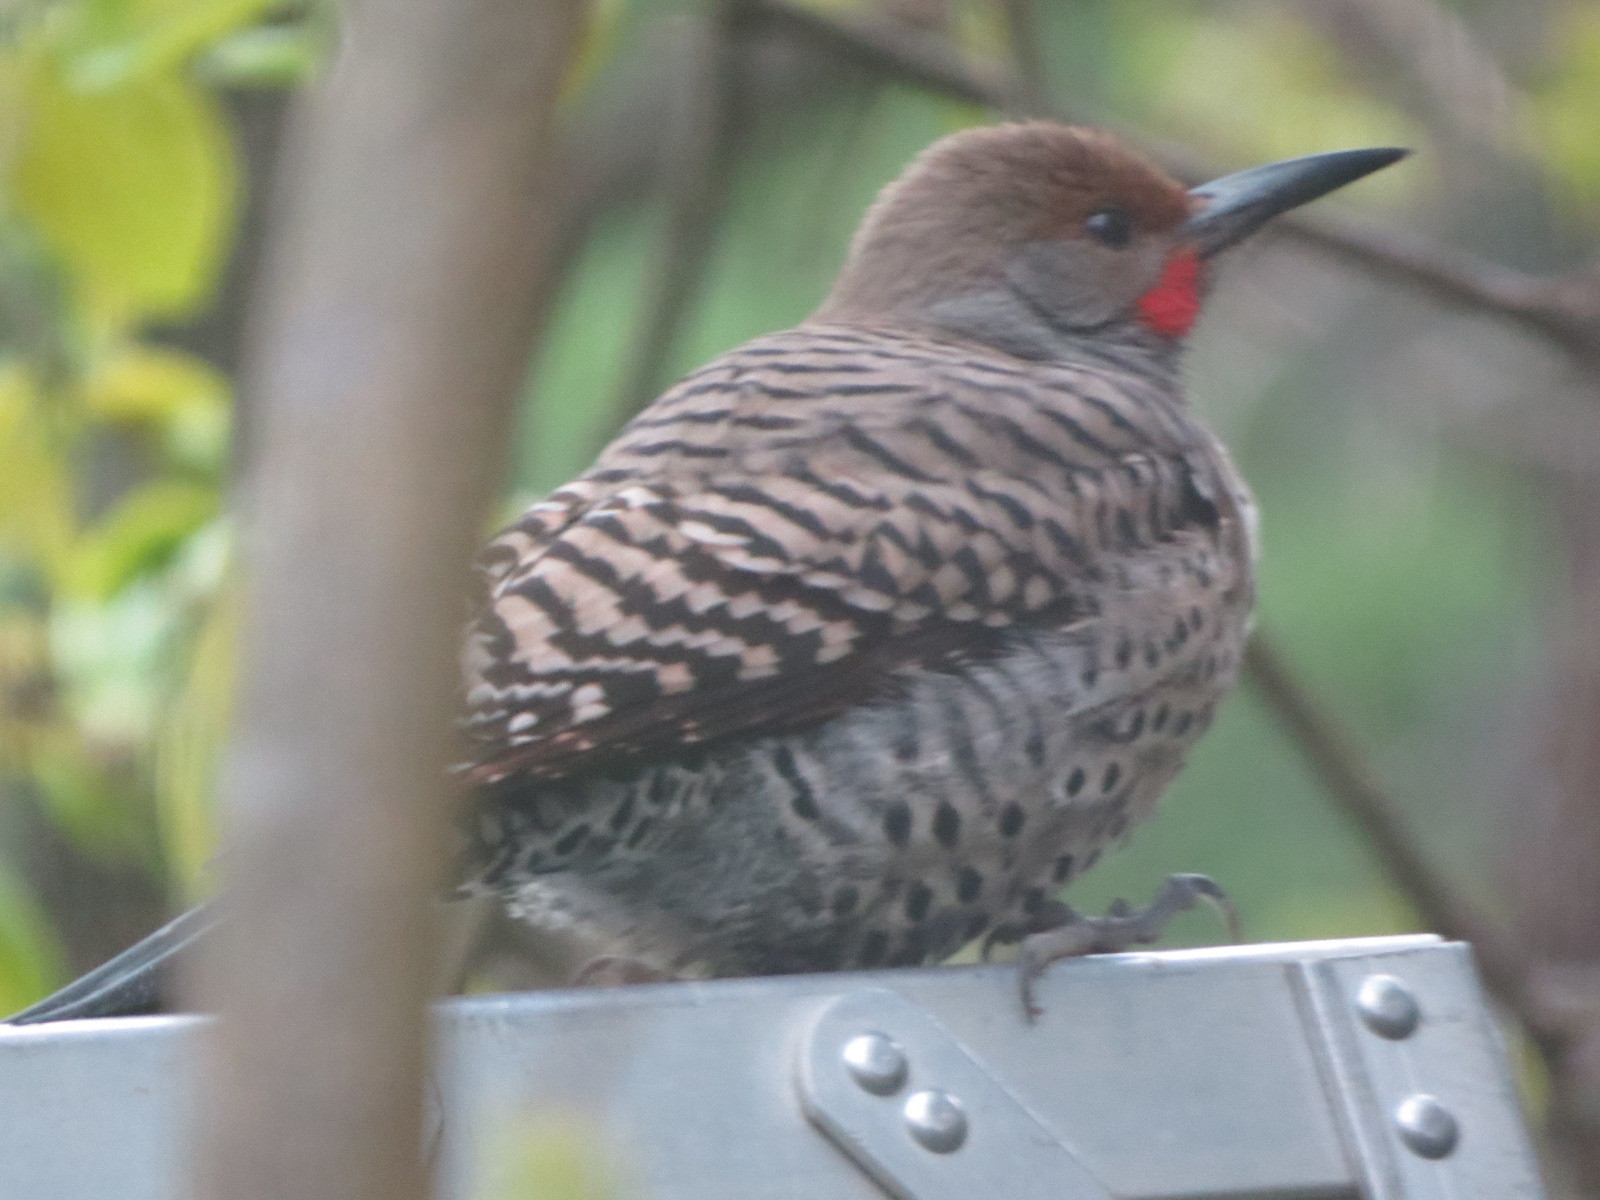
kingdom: Animalia
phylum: Chordata
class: Aves
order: Piciformes
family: Picidae
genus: Colaptes
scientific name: Colaptes auratus
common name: Northern flicker
